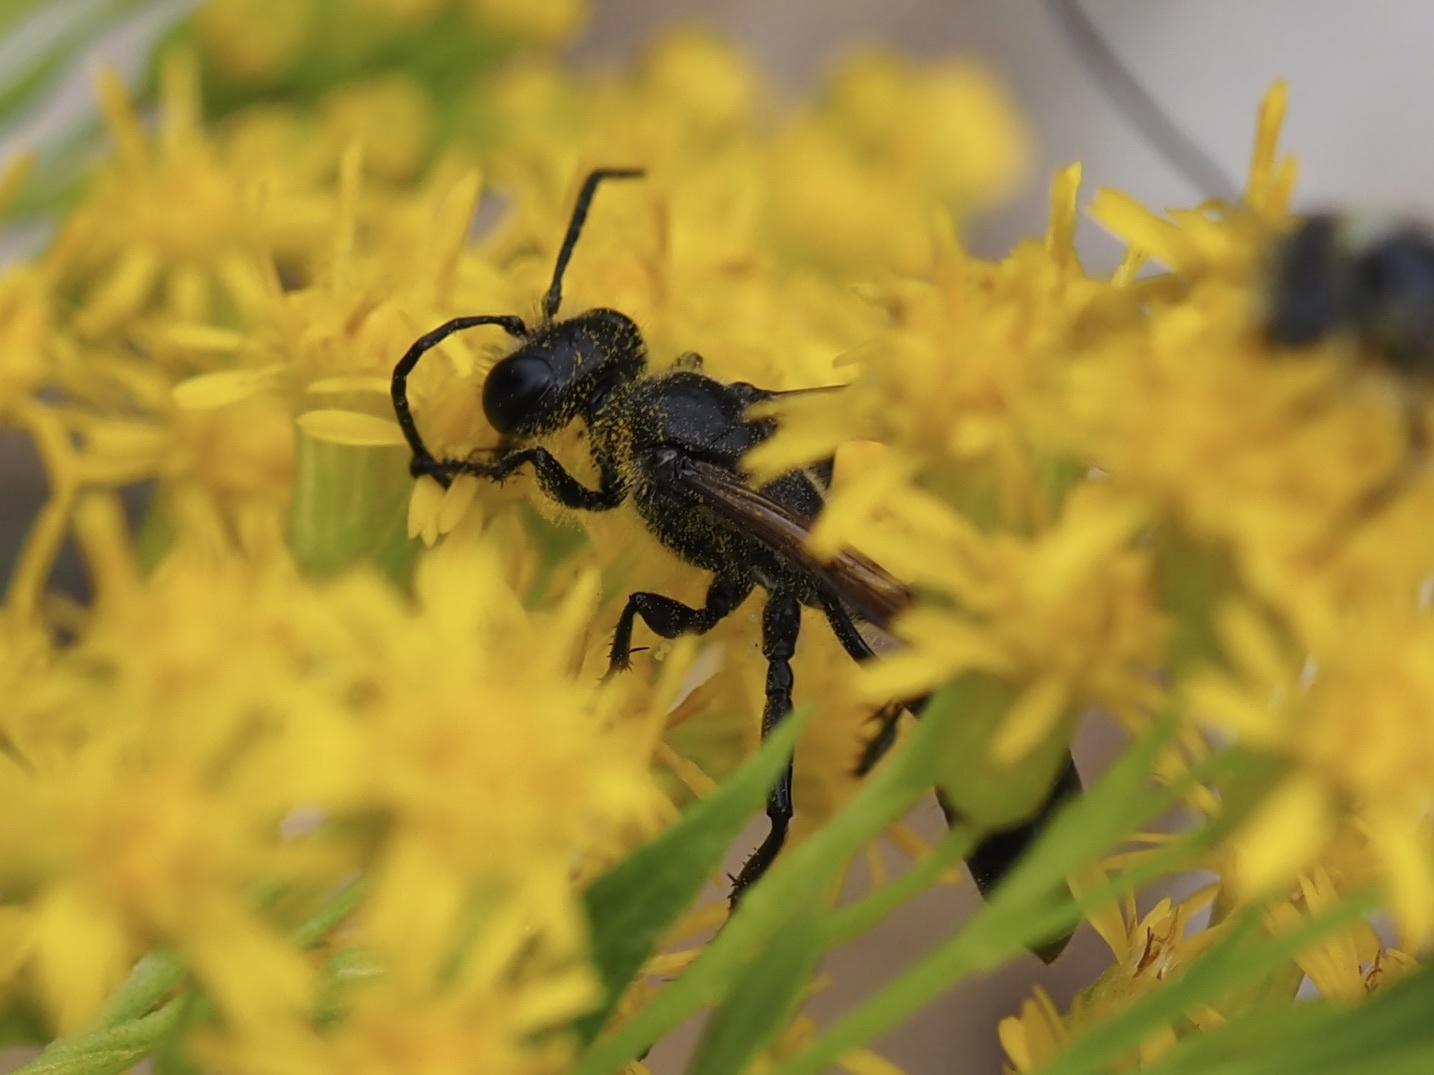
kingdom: Animalia
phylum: Arthropoda
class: Insecta
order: Hymenoptera
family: Sphecidae
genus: Isodontia
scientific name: Isodontia mexicana
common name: Mud dauber
